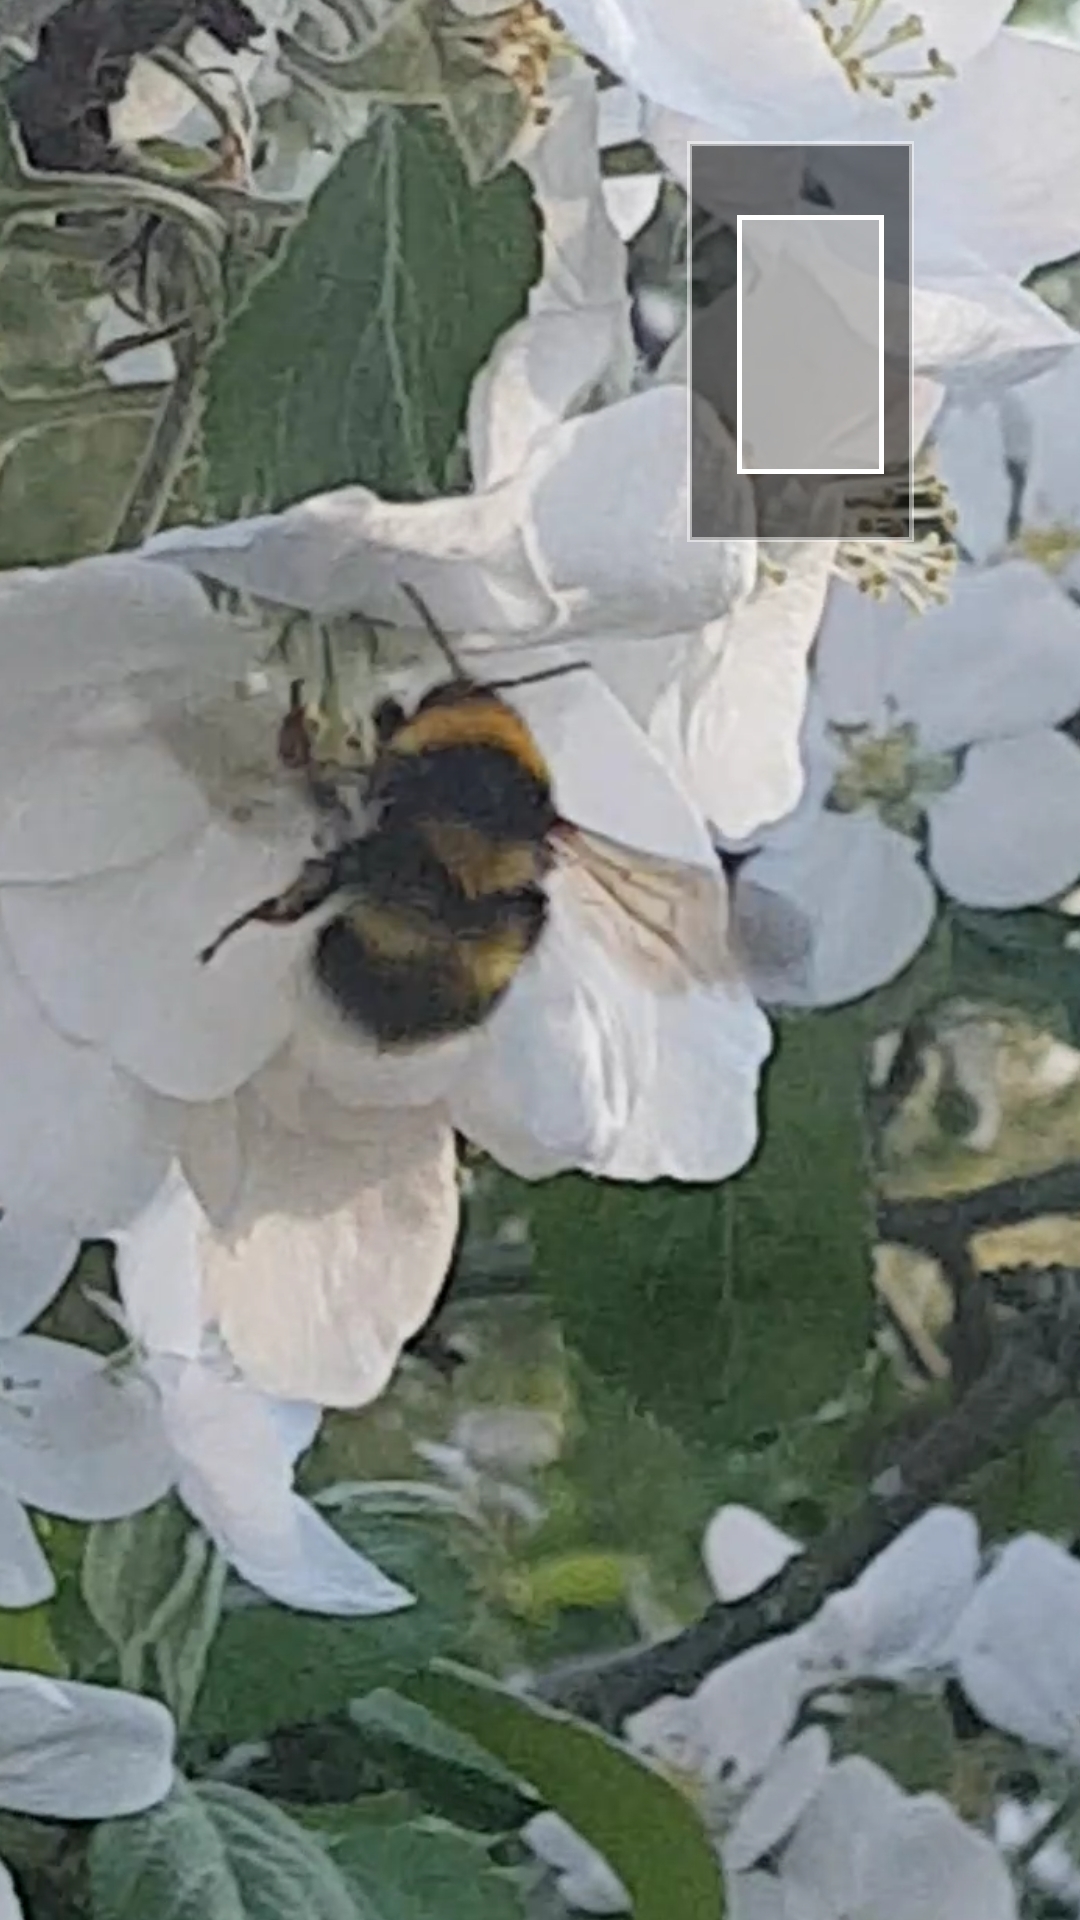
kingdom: Animalia
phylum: Arthropoda
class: Insecta
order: Hymenoptera
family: Apidae
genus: Bombus
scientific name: Bombus hortorum
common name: Garden bumblebee
